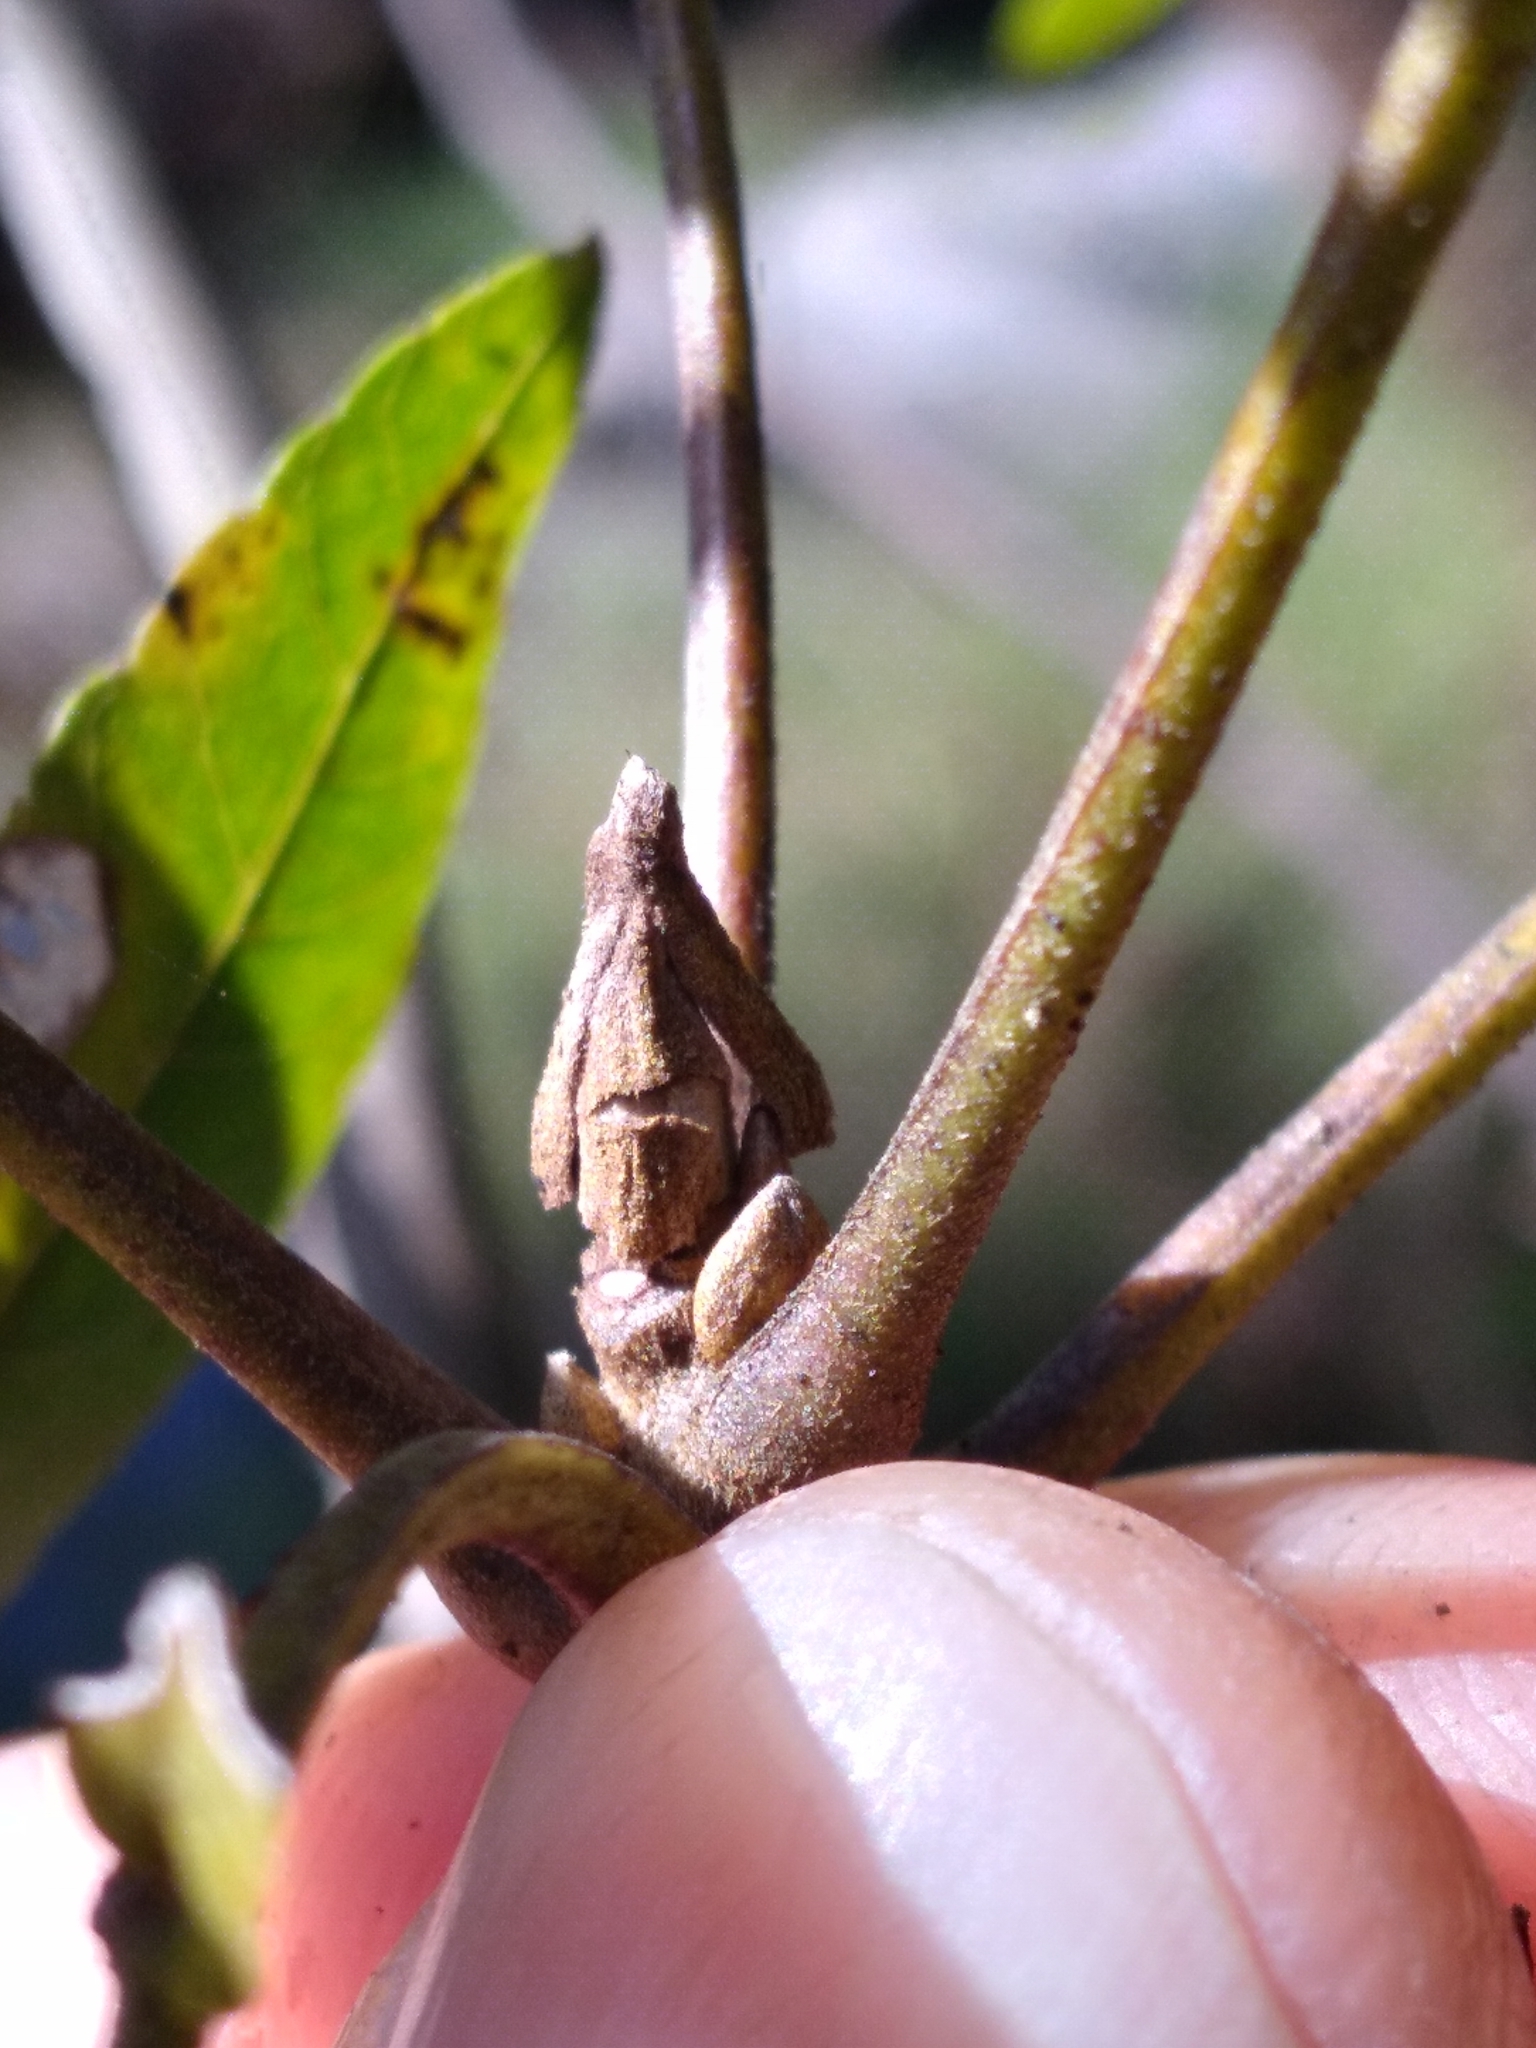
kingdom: Plantae
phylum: Tracheophyta
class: Magnoliopsida
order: Fagales
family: Juglandaceae
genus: Carya
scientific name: Carya aquatica
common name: Water hickory
